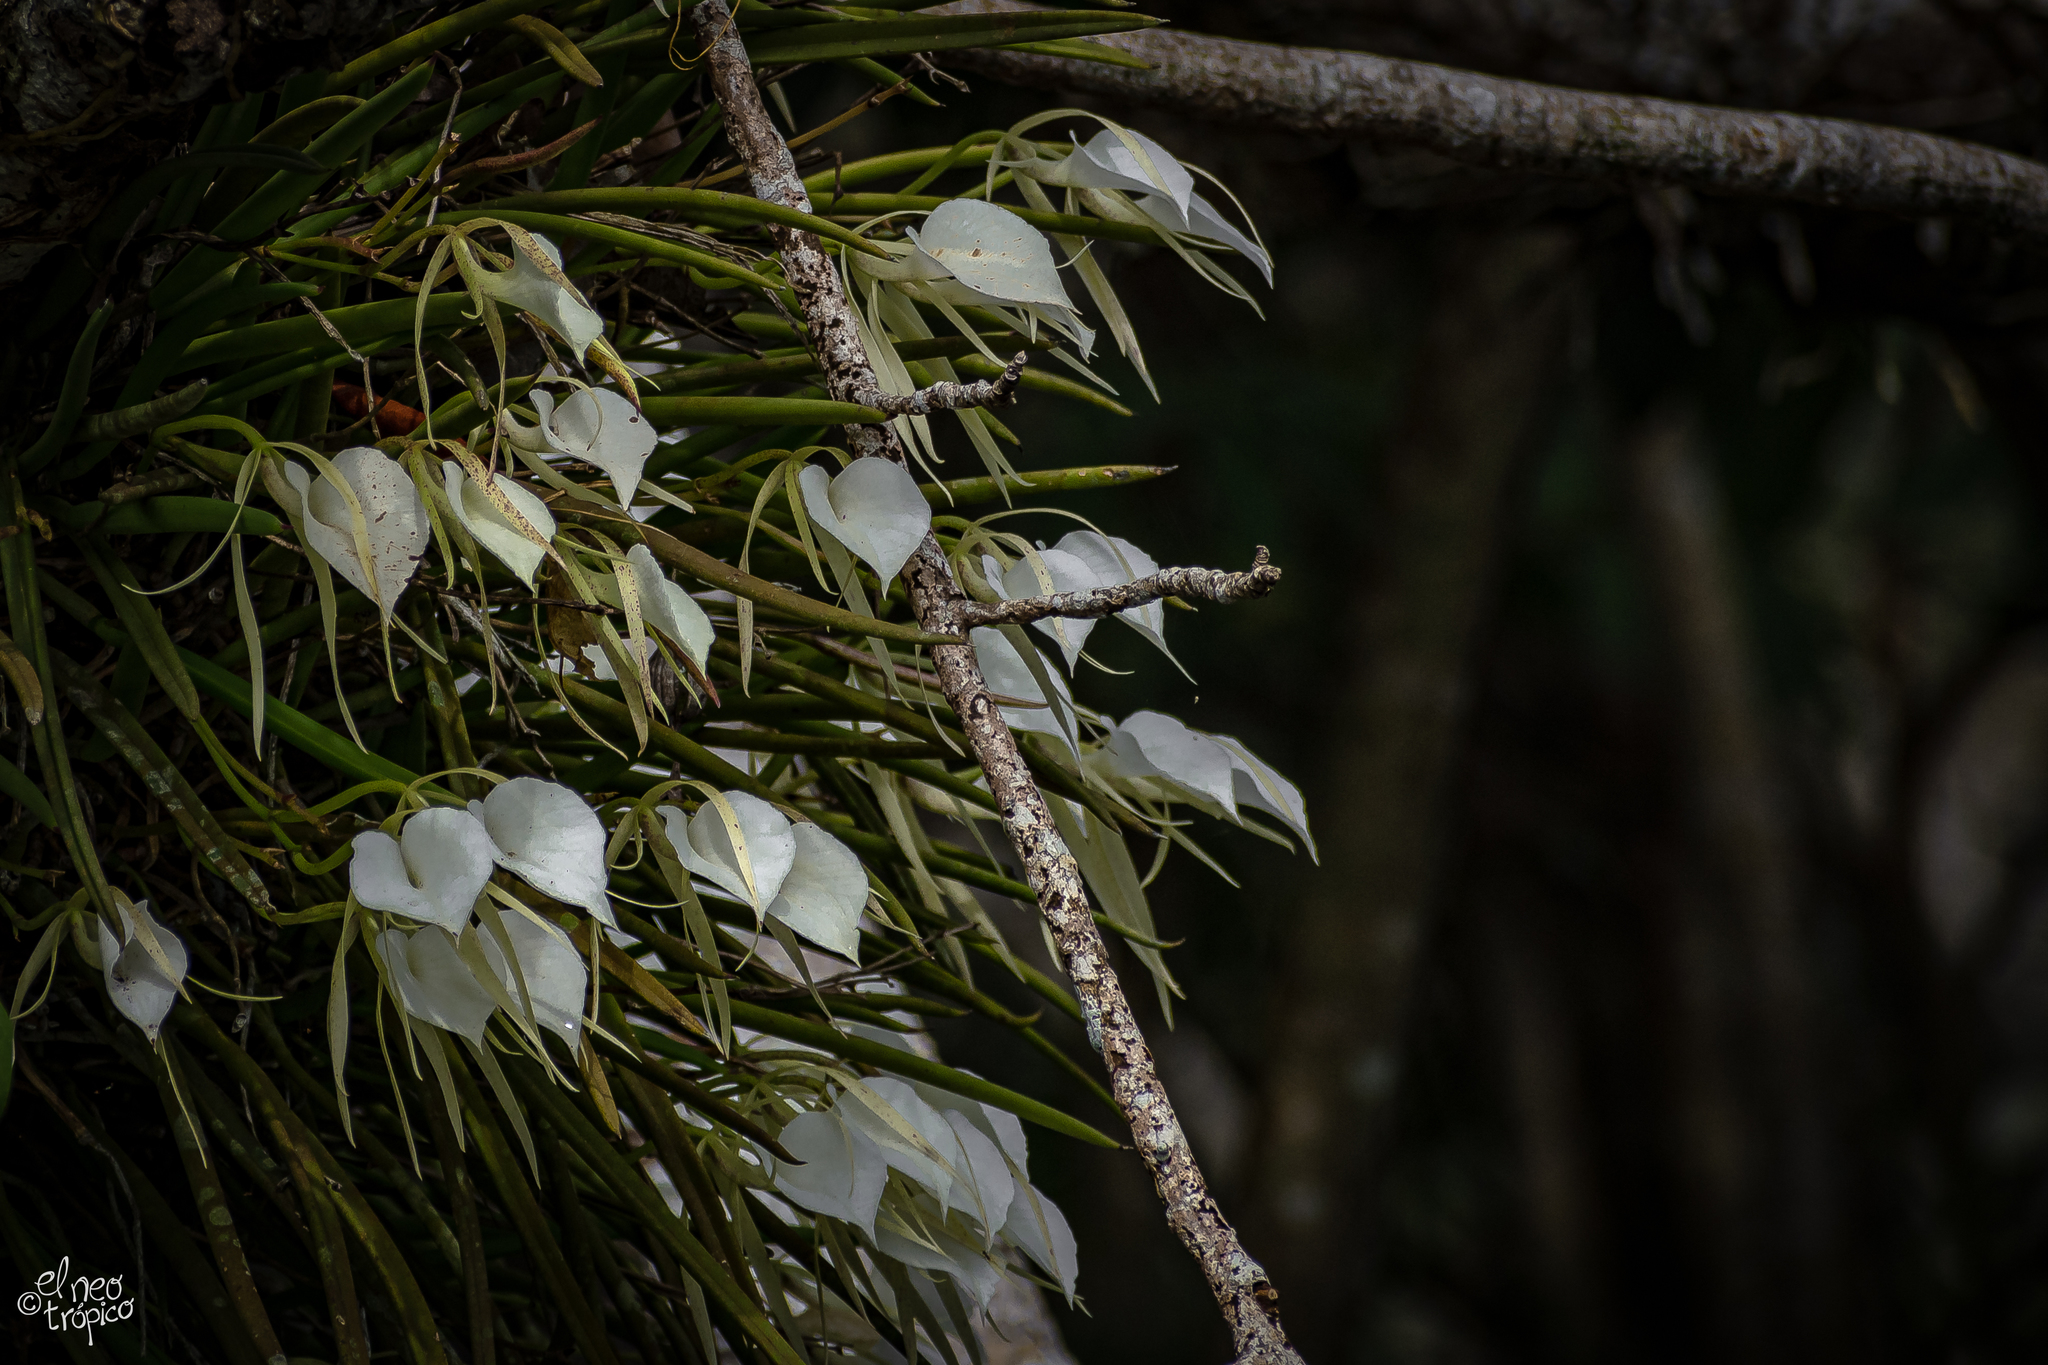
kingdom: Plantae
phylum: Tracheophyta
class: Liliopsida
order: Asparagales
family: Orchidaceae
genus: Brassavola
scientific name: Brassavola nodosa
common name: Lady of the night
